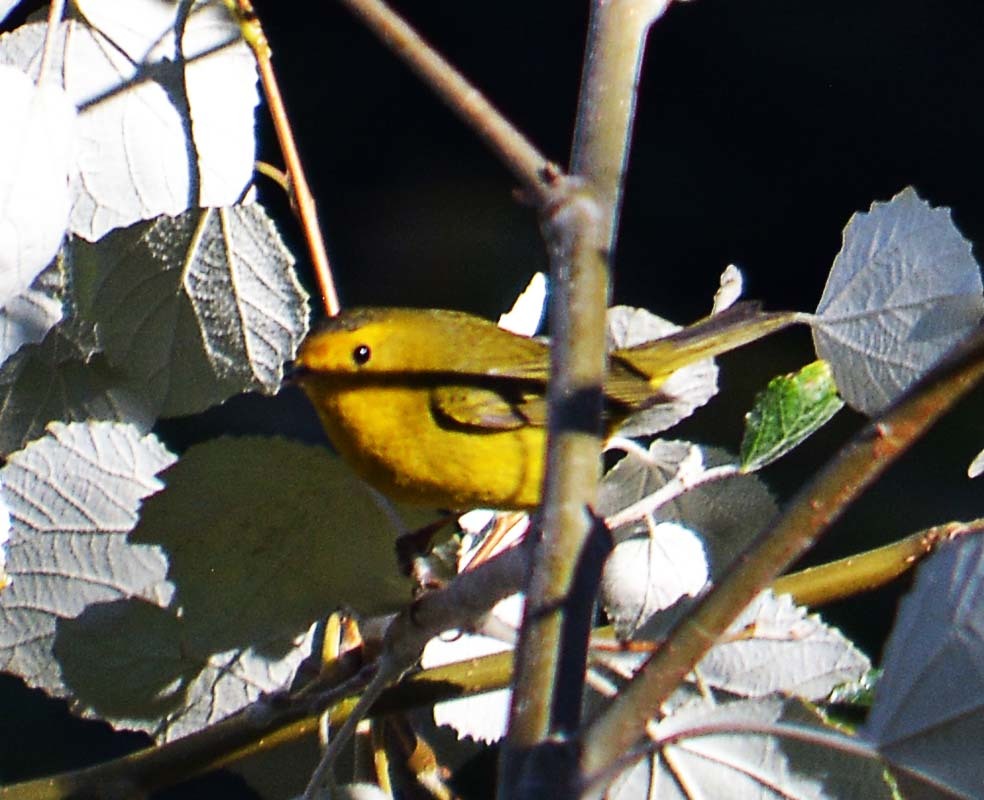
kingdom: Animalia
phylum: Chordata
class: Aves
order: Passeriformes
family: Parulidae
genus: Cardellina
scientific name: Cardellina pusilla
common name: Wilson's warbler
